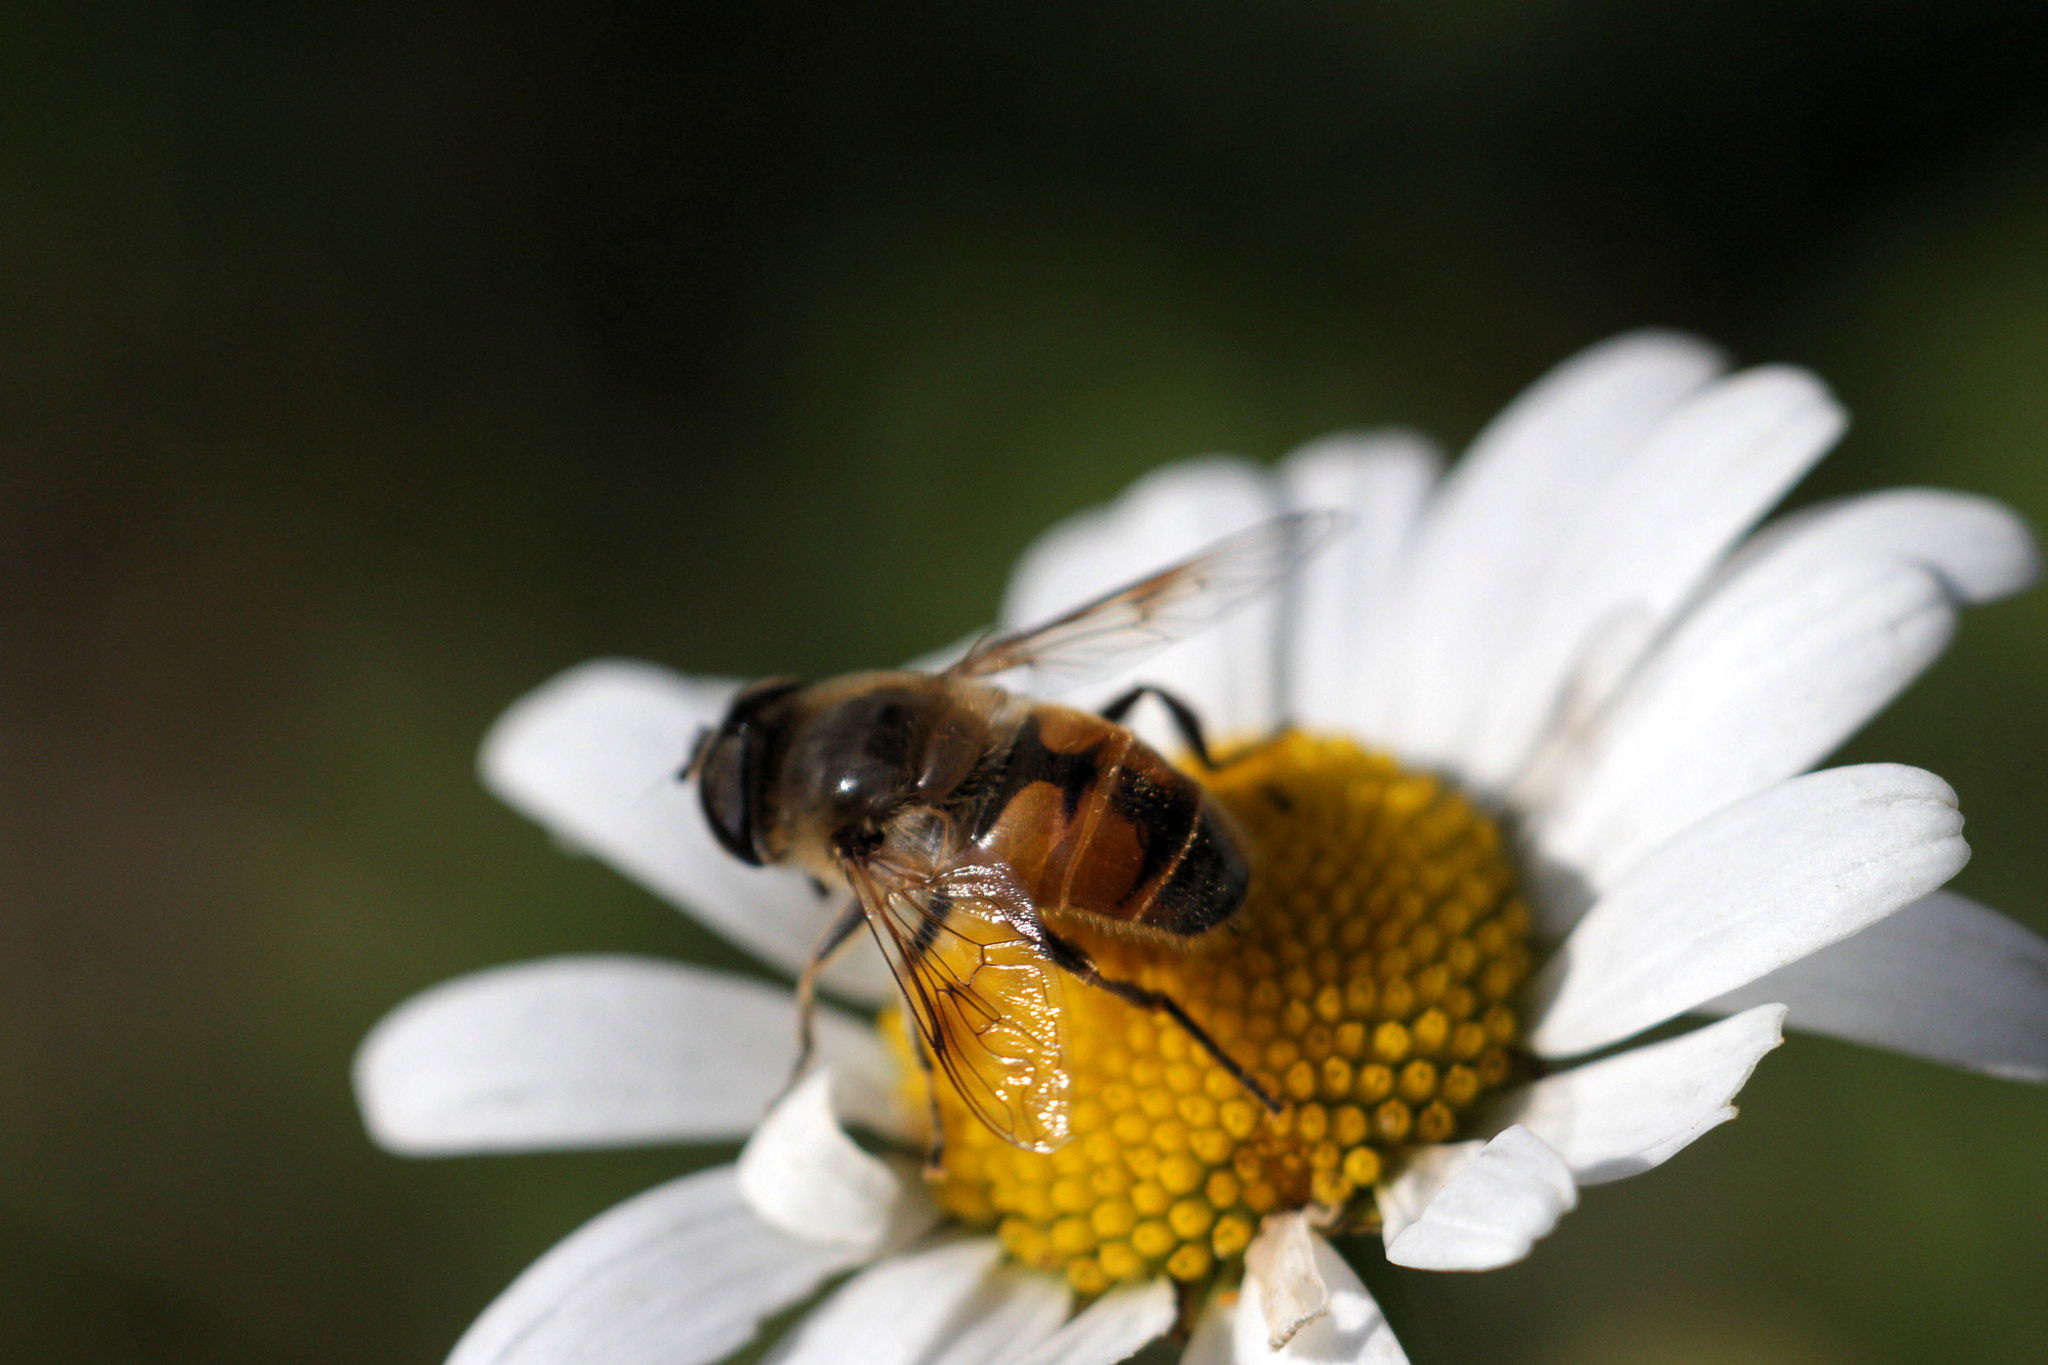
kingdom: Animalia
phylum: Arthropoda
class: Insecta
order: Diptera
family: Syrphidae
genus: Eristalis
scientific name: Eristalis tenax
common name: Drone fly
